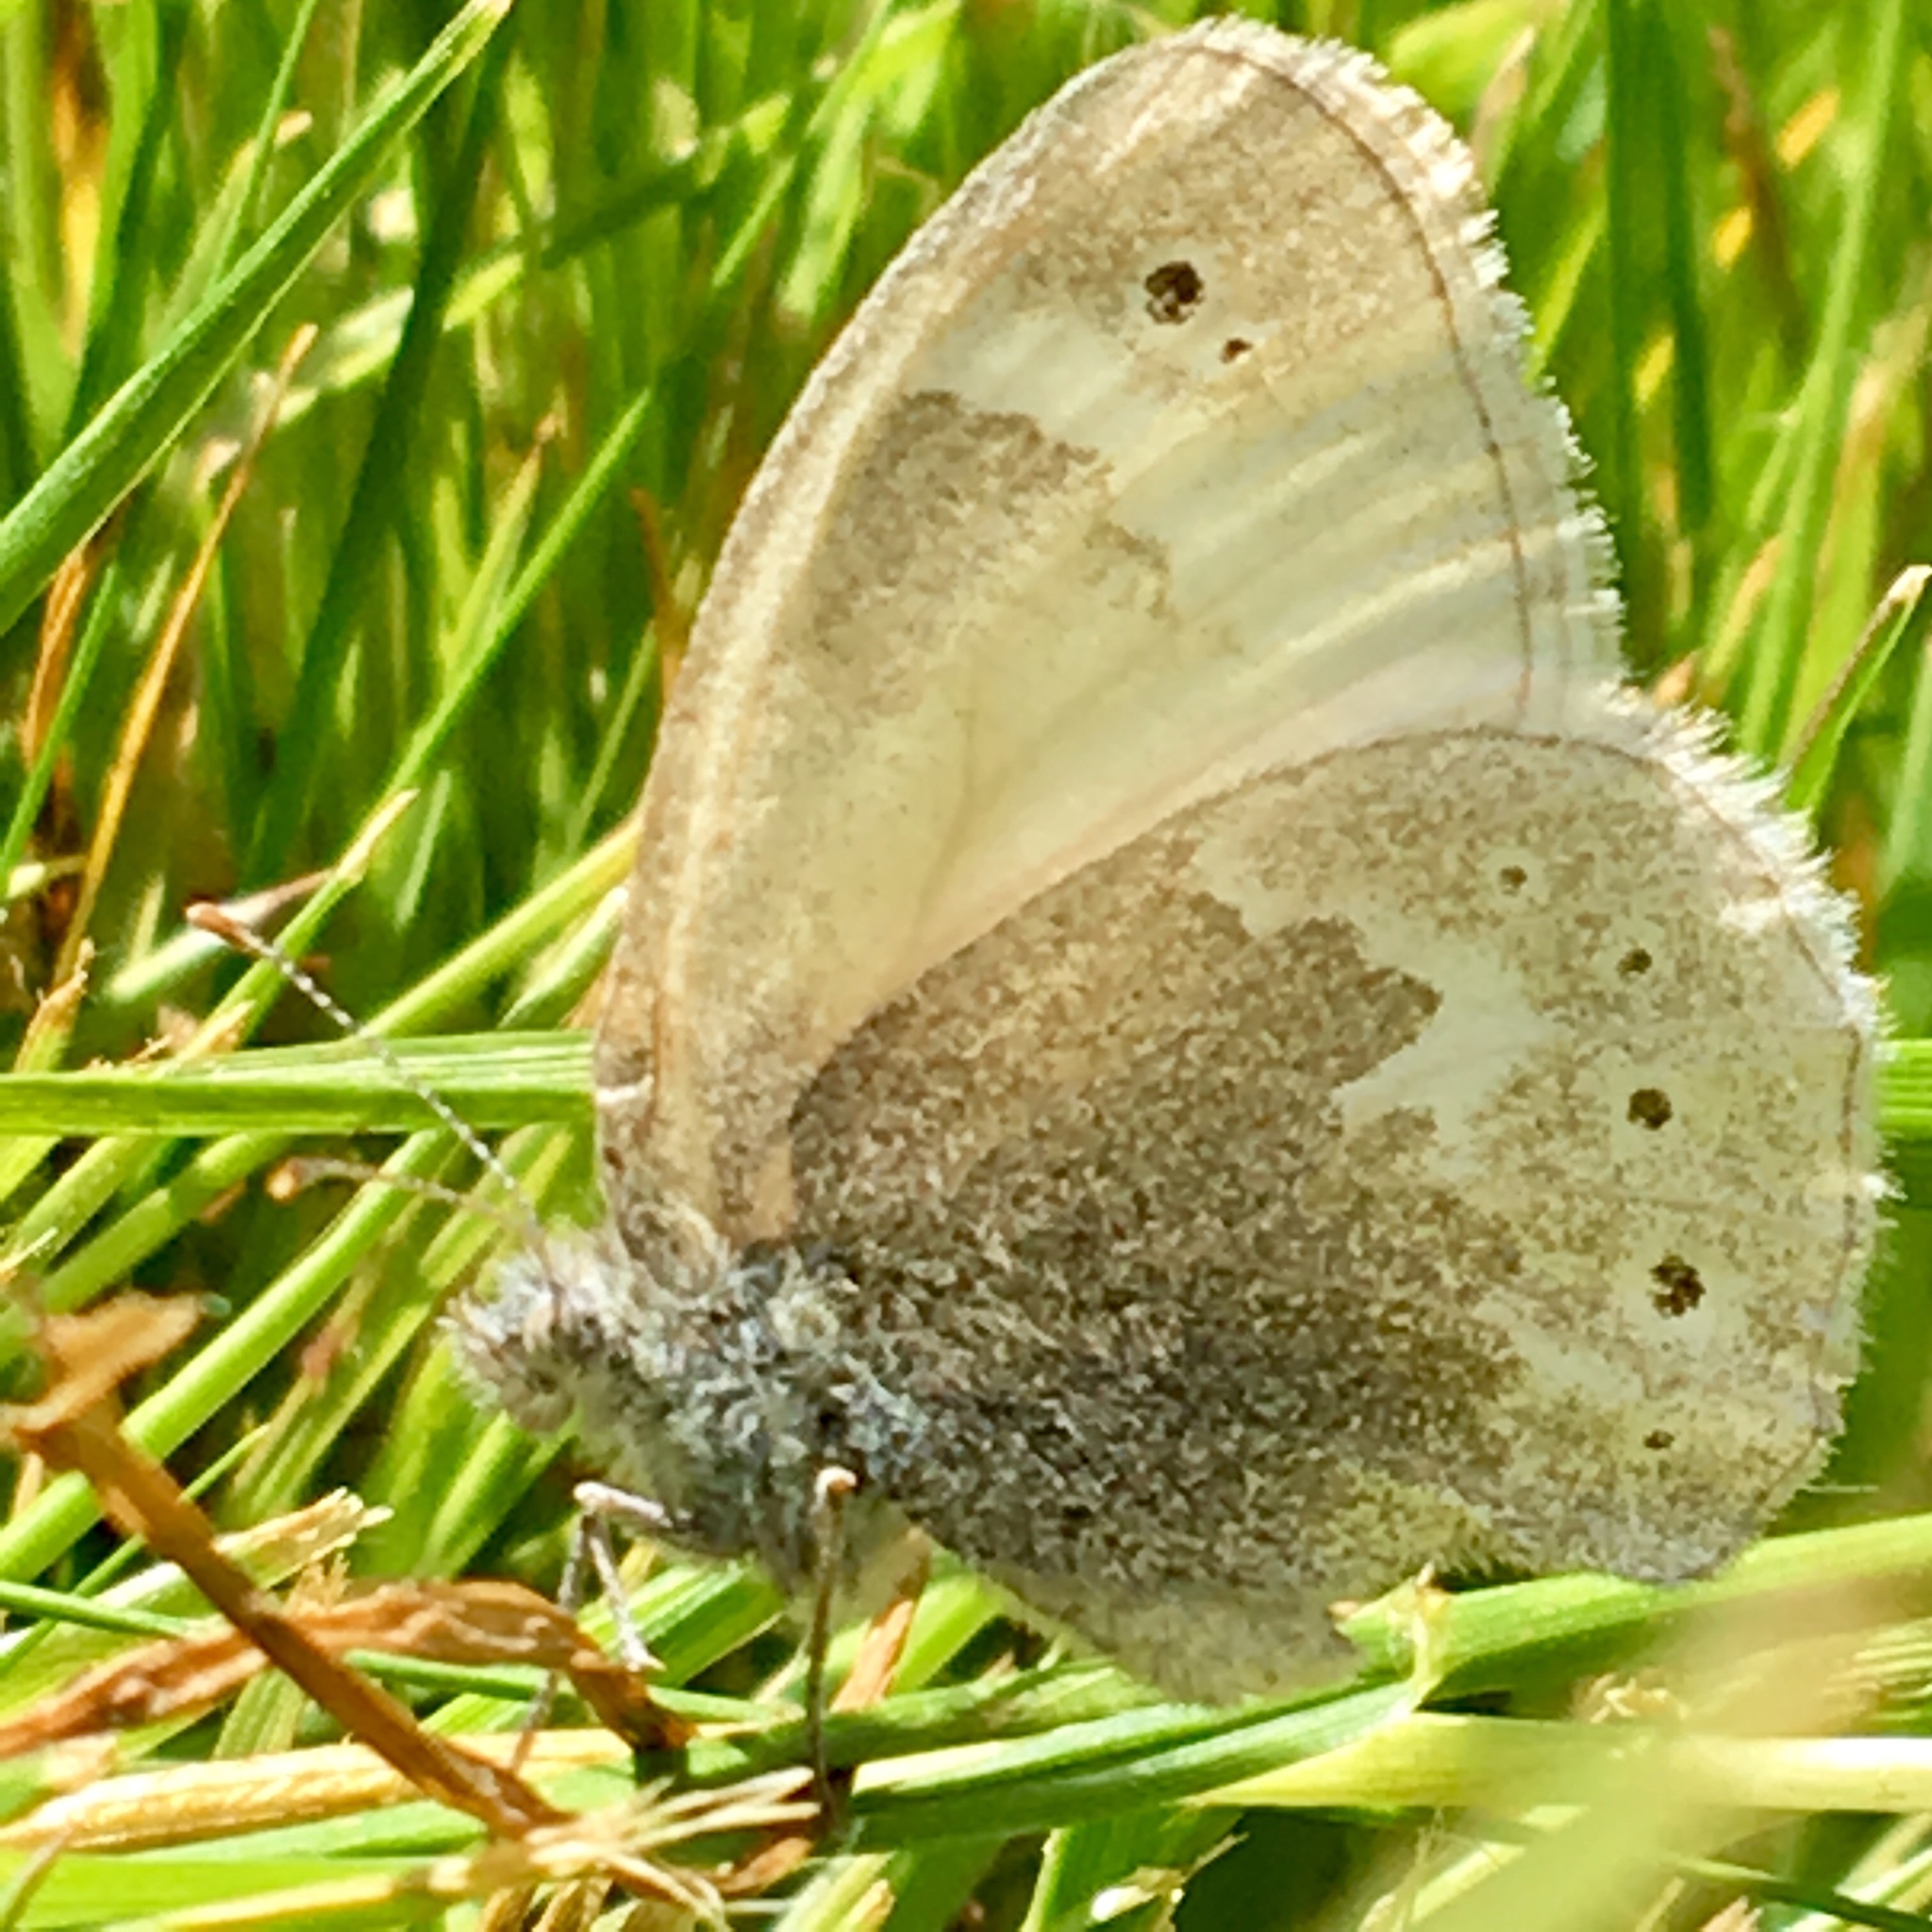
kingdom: Animalia
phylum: Arthropoda
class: Insecta
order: Lepidoptera
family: Nymphalidae
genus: Coenonympha
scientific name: Coenonympha california
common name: Common ringlet
